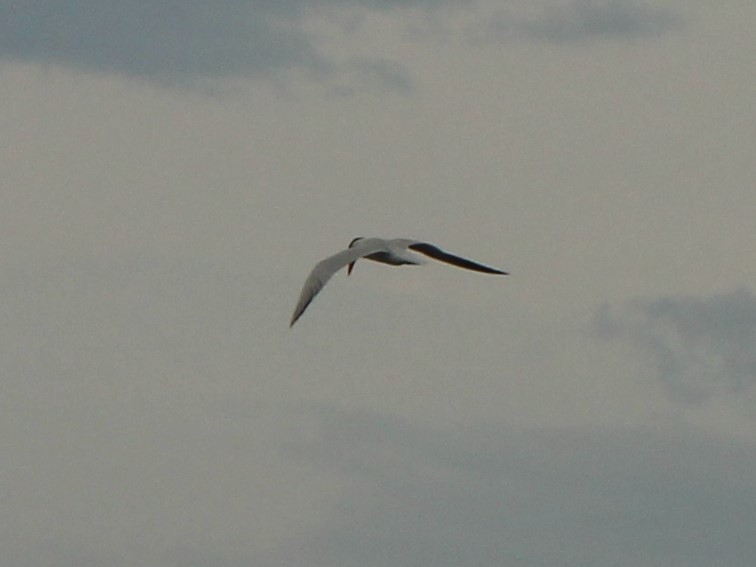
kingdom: Animalia
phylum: Chordata
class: Aves
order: Charadriiformes
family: Laridae
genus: Hydroprogne
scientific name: Hydroprogne caspia
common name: Caspian tern
